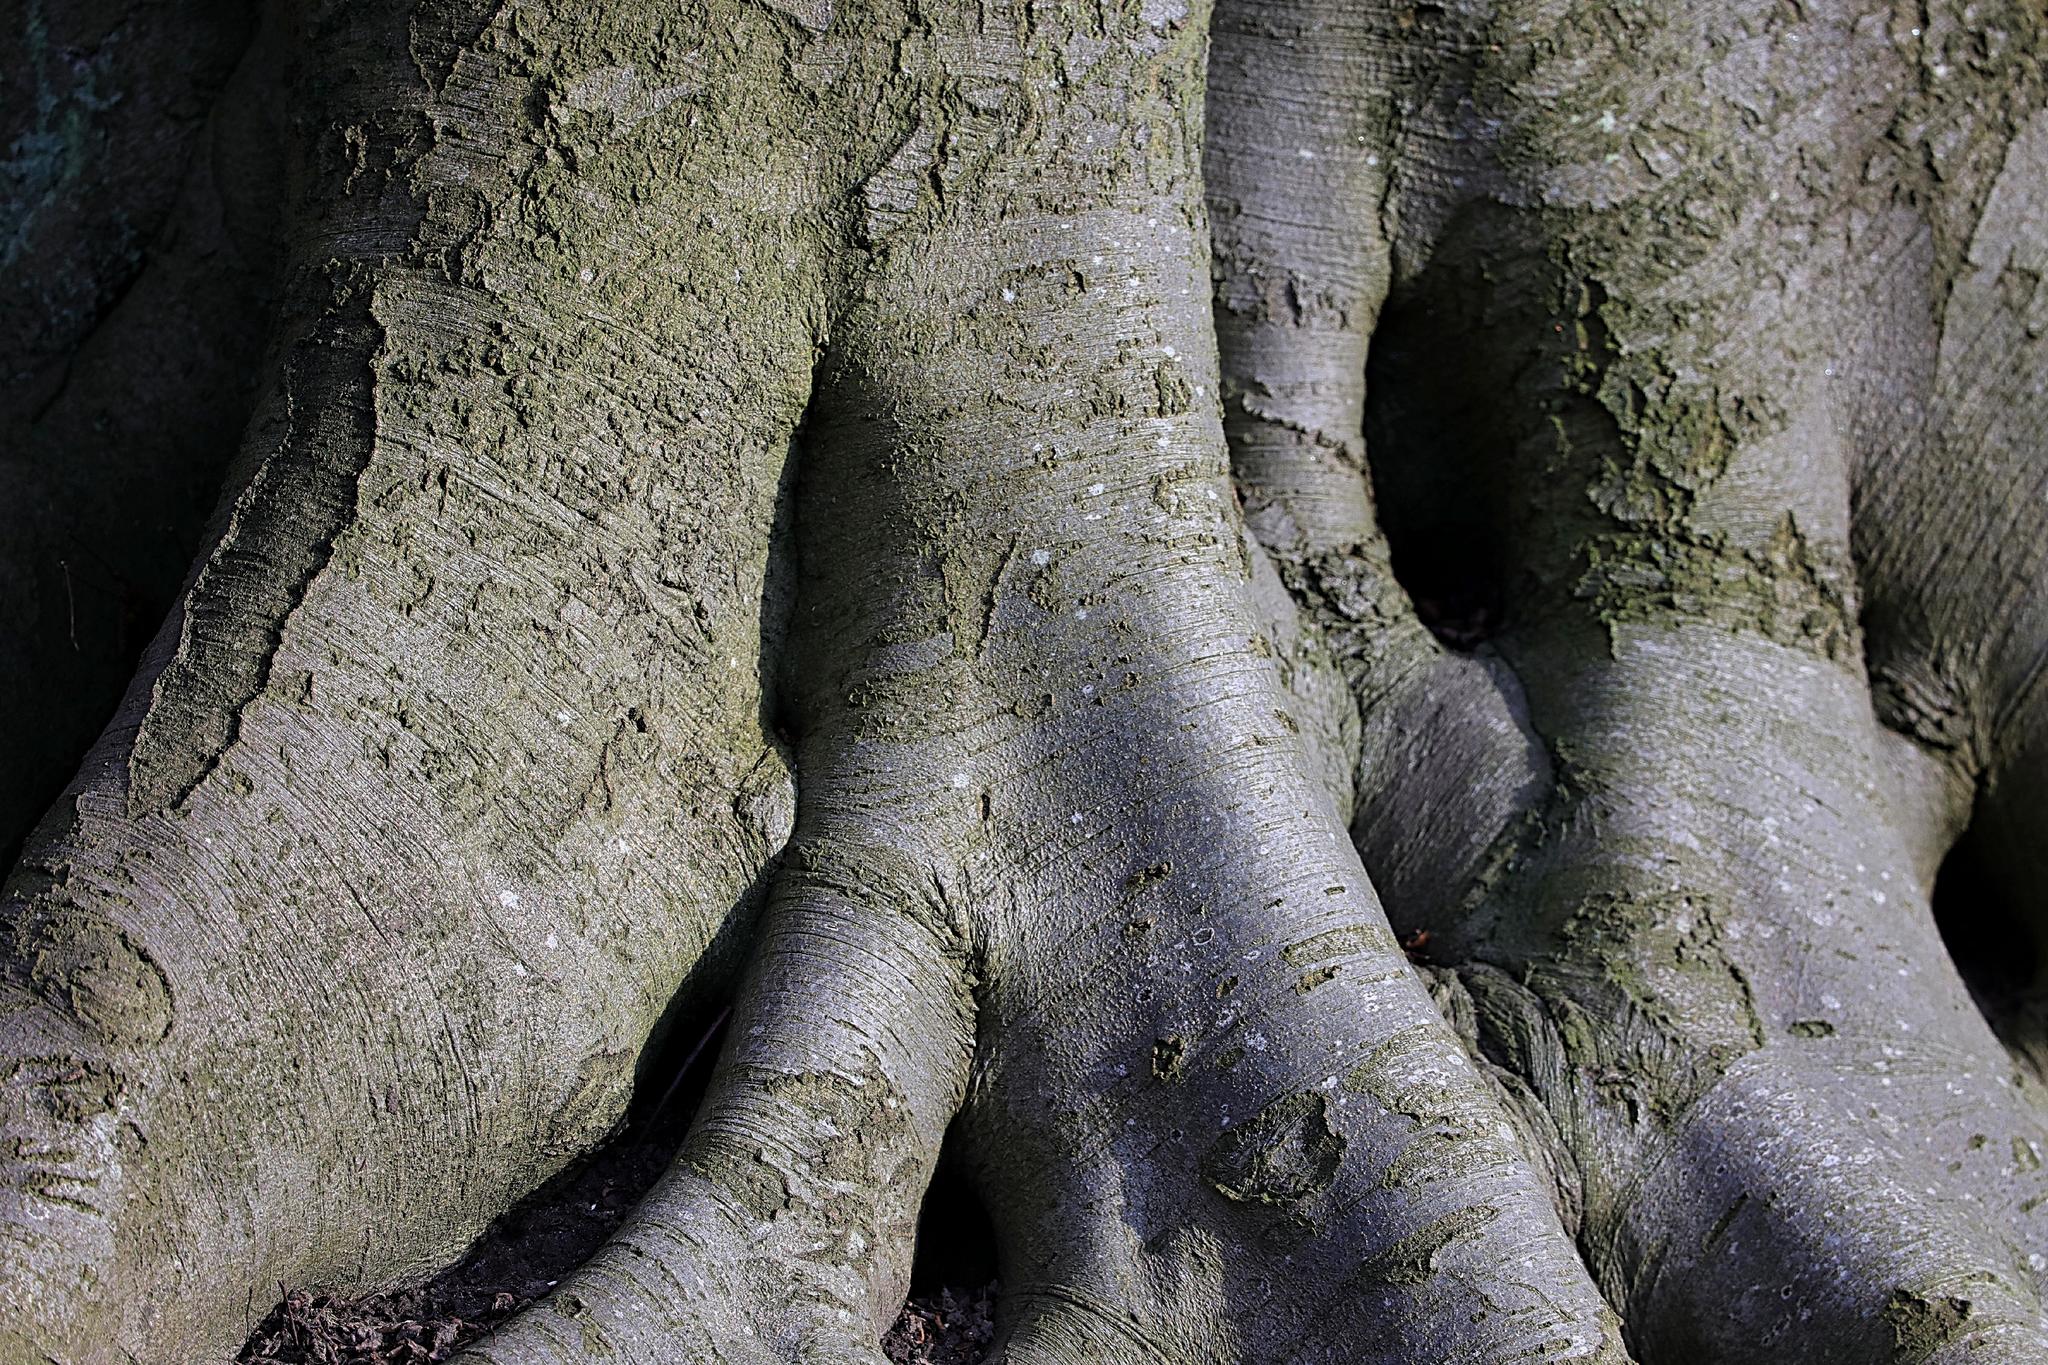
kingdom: Plantae
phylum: Tracheophyta
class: Magnoliopsida
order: Fagales
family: Fagaceae
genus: Fagus
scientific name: Fagus sylvatica
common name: Beech
